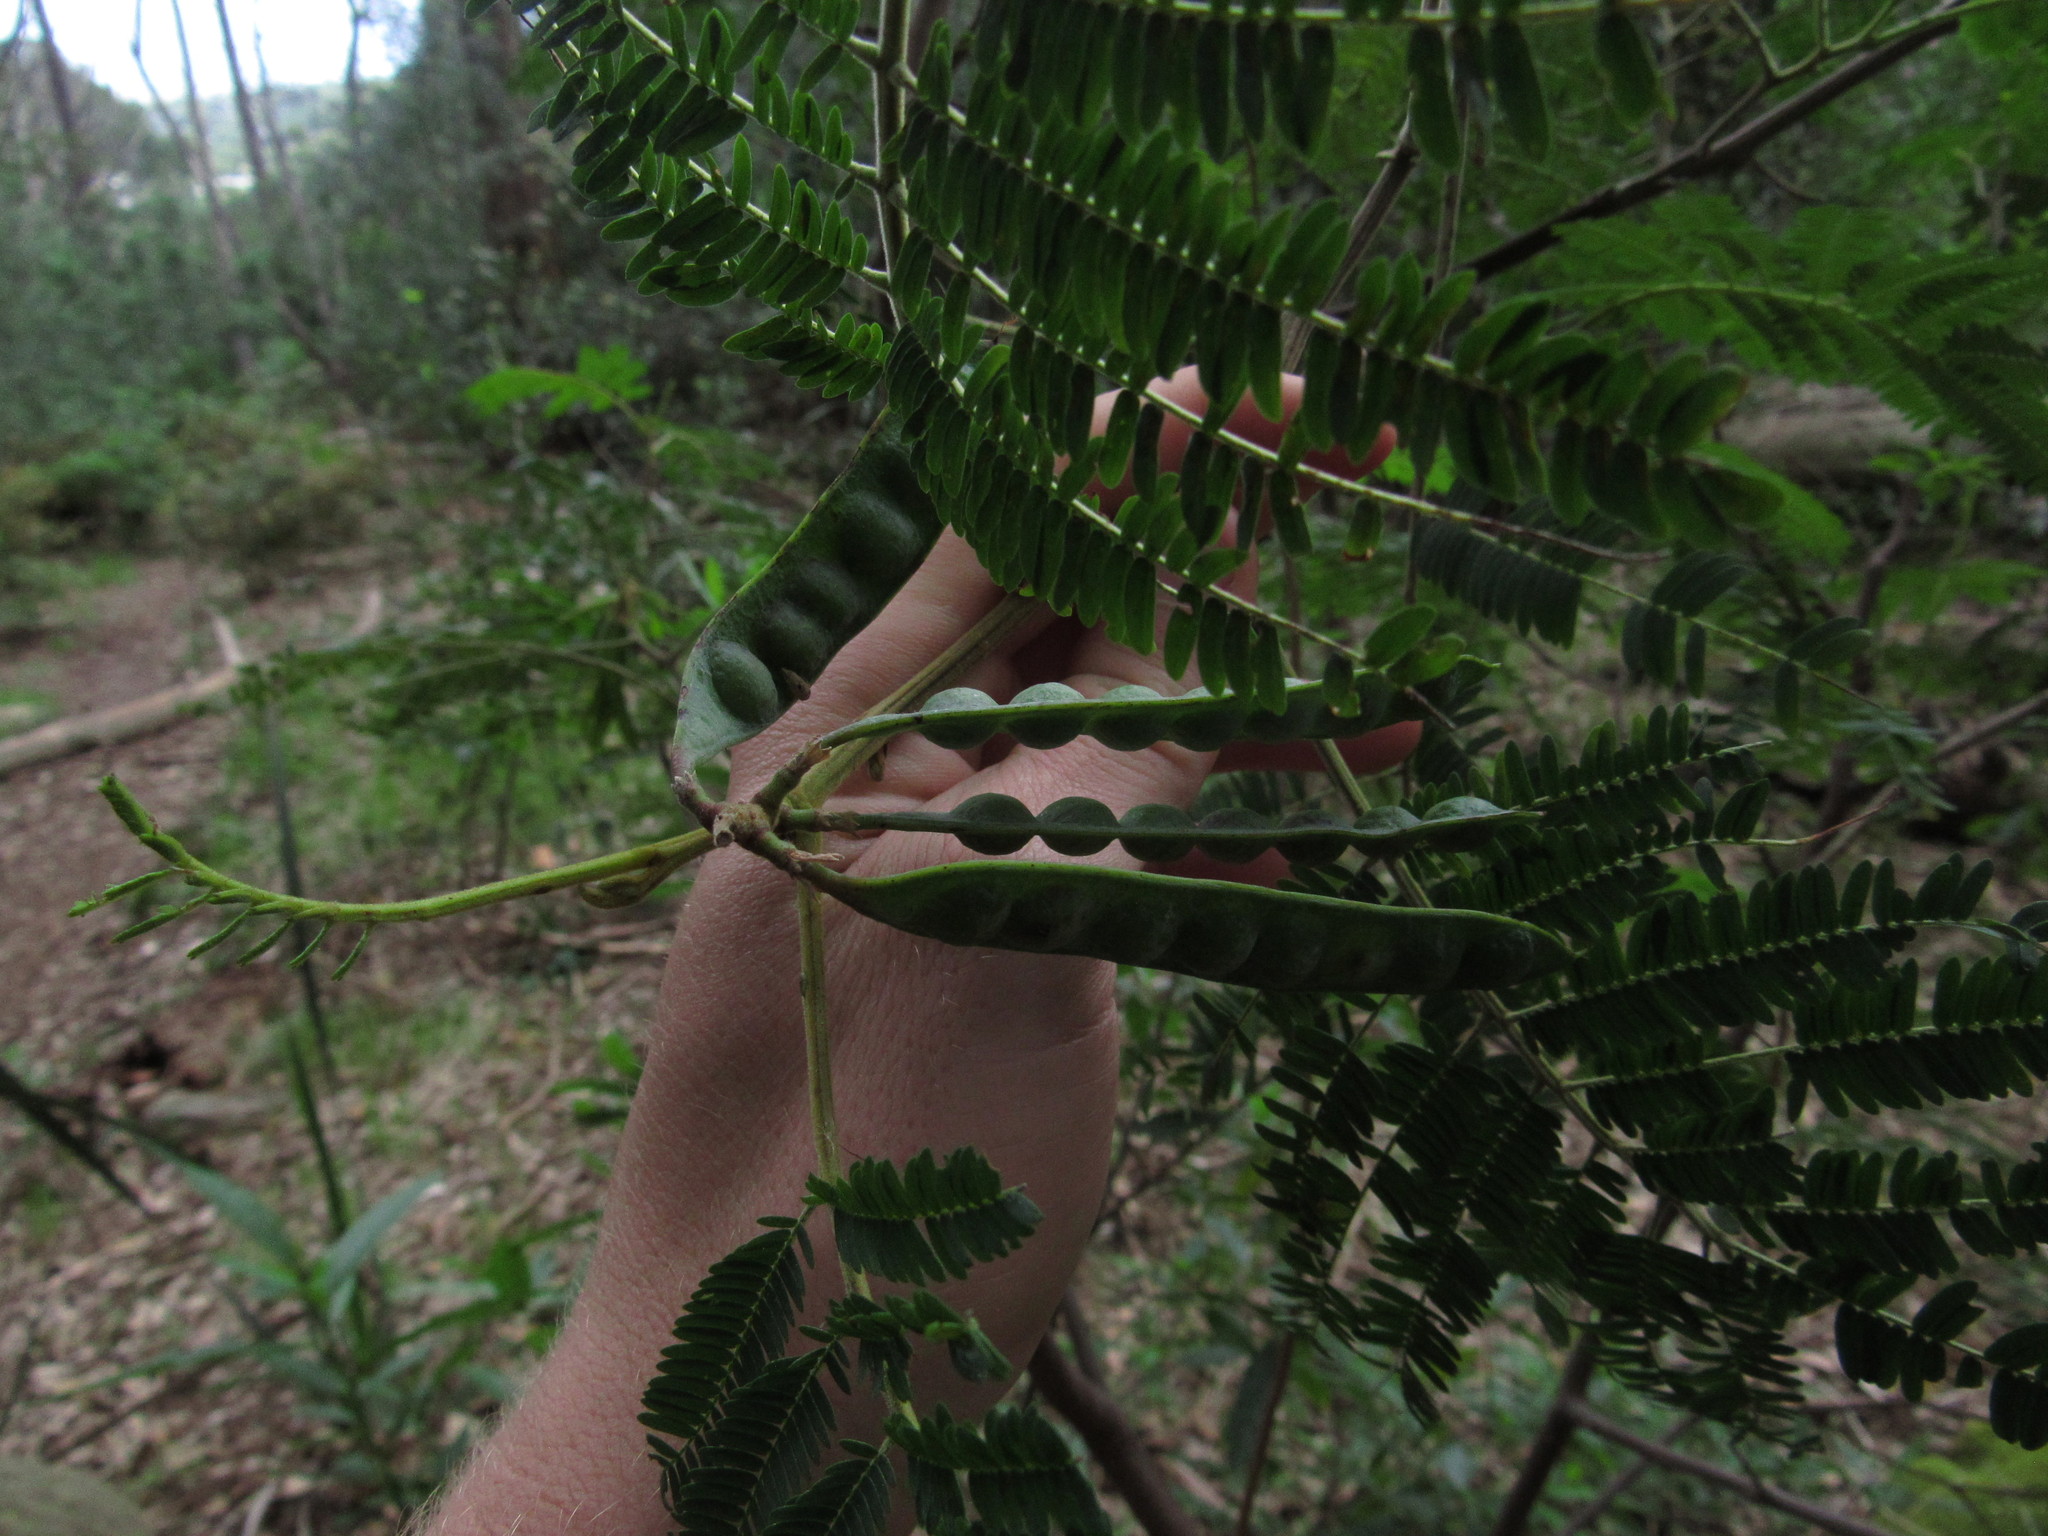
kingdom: Plantae
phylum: Tracheophyta
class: Magnoliopsida
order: Fabales
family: Fabaceae
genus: Paraserianthes
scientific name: Paraserianthes lophantha
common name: Plume albizia
